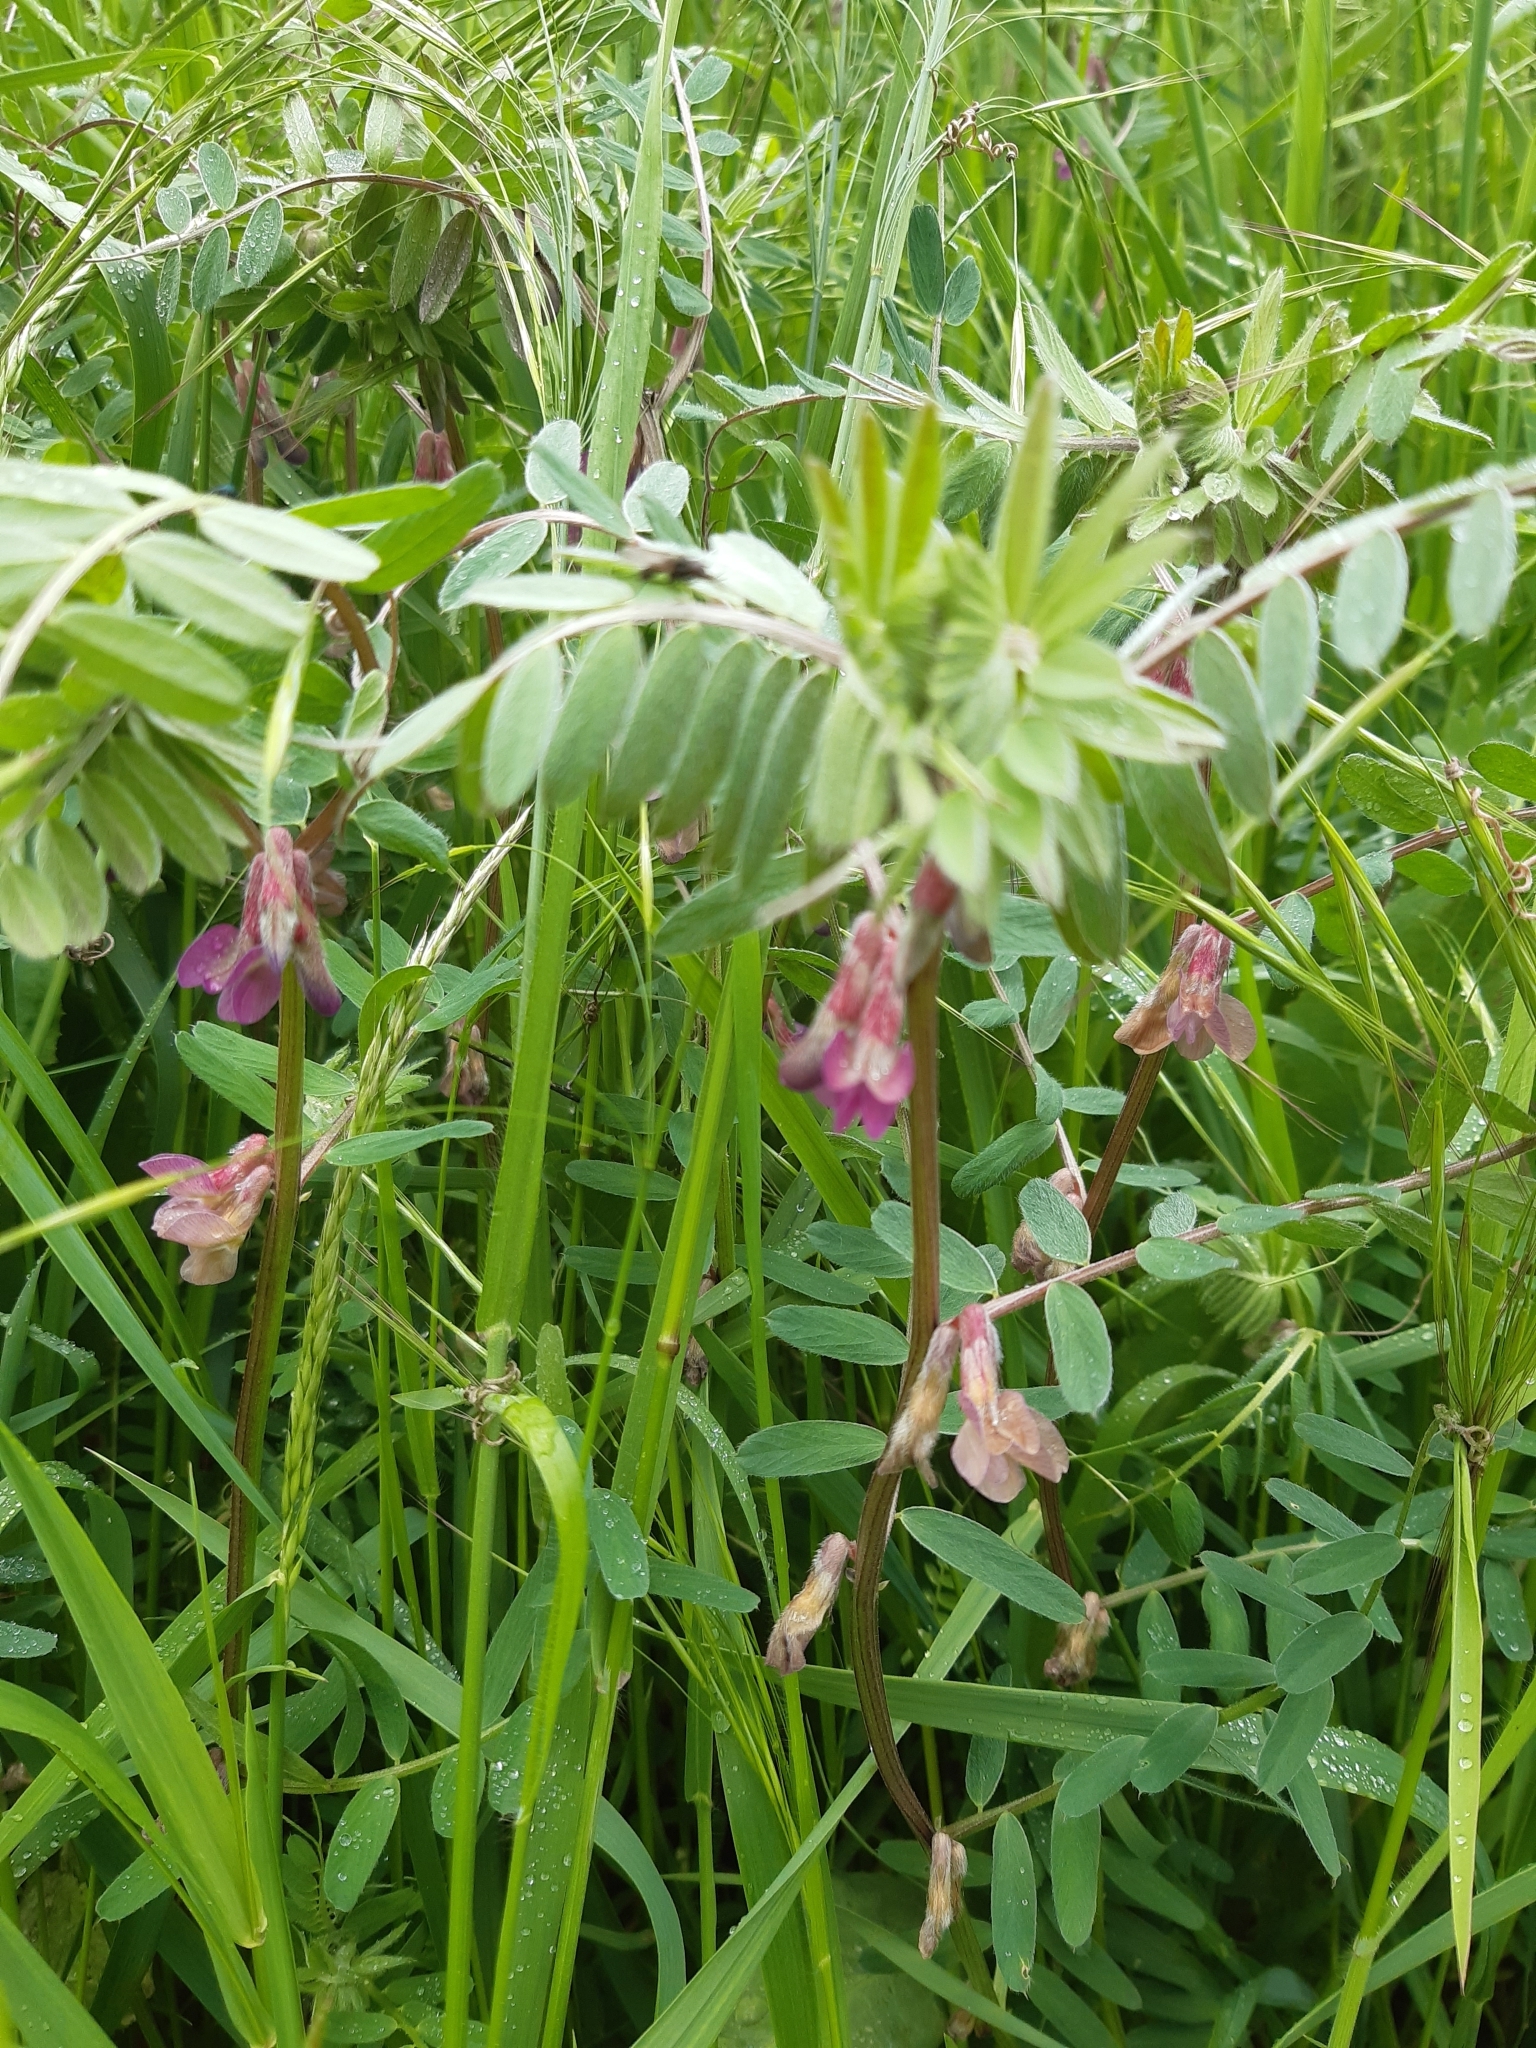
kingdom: Plantae
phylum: Tracheophyta
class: Magnoliopsida
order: Fabales
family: Fabaceae
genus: Vicia
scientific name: Vicia pannonica
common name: Hungarian vetch
